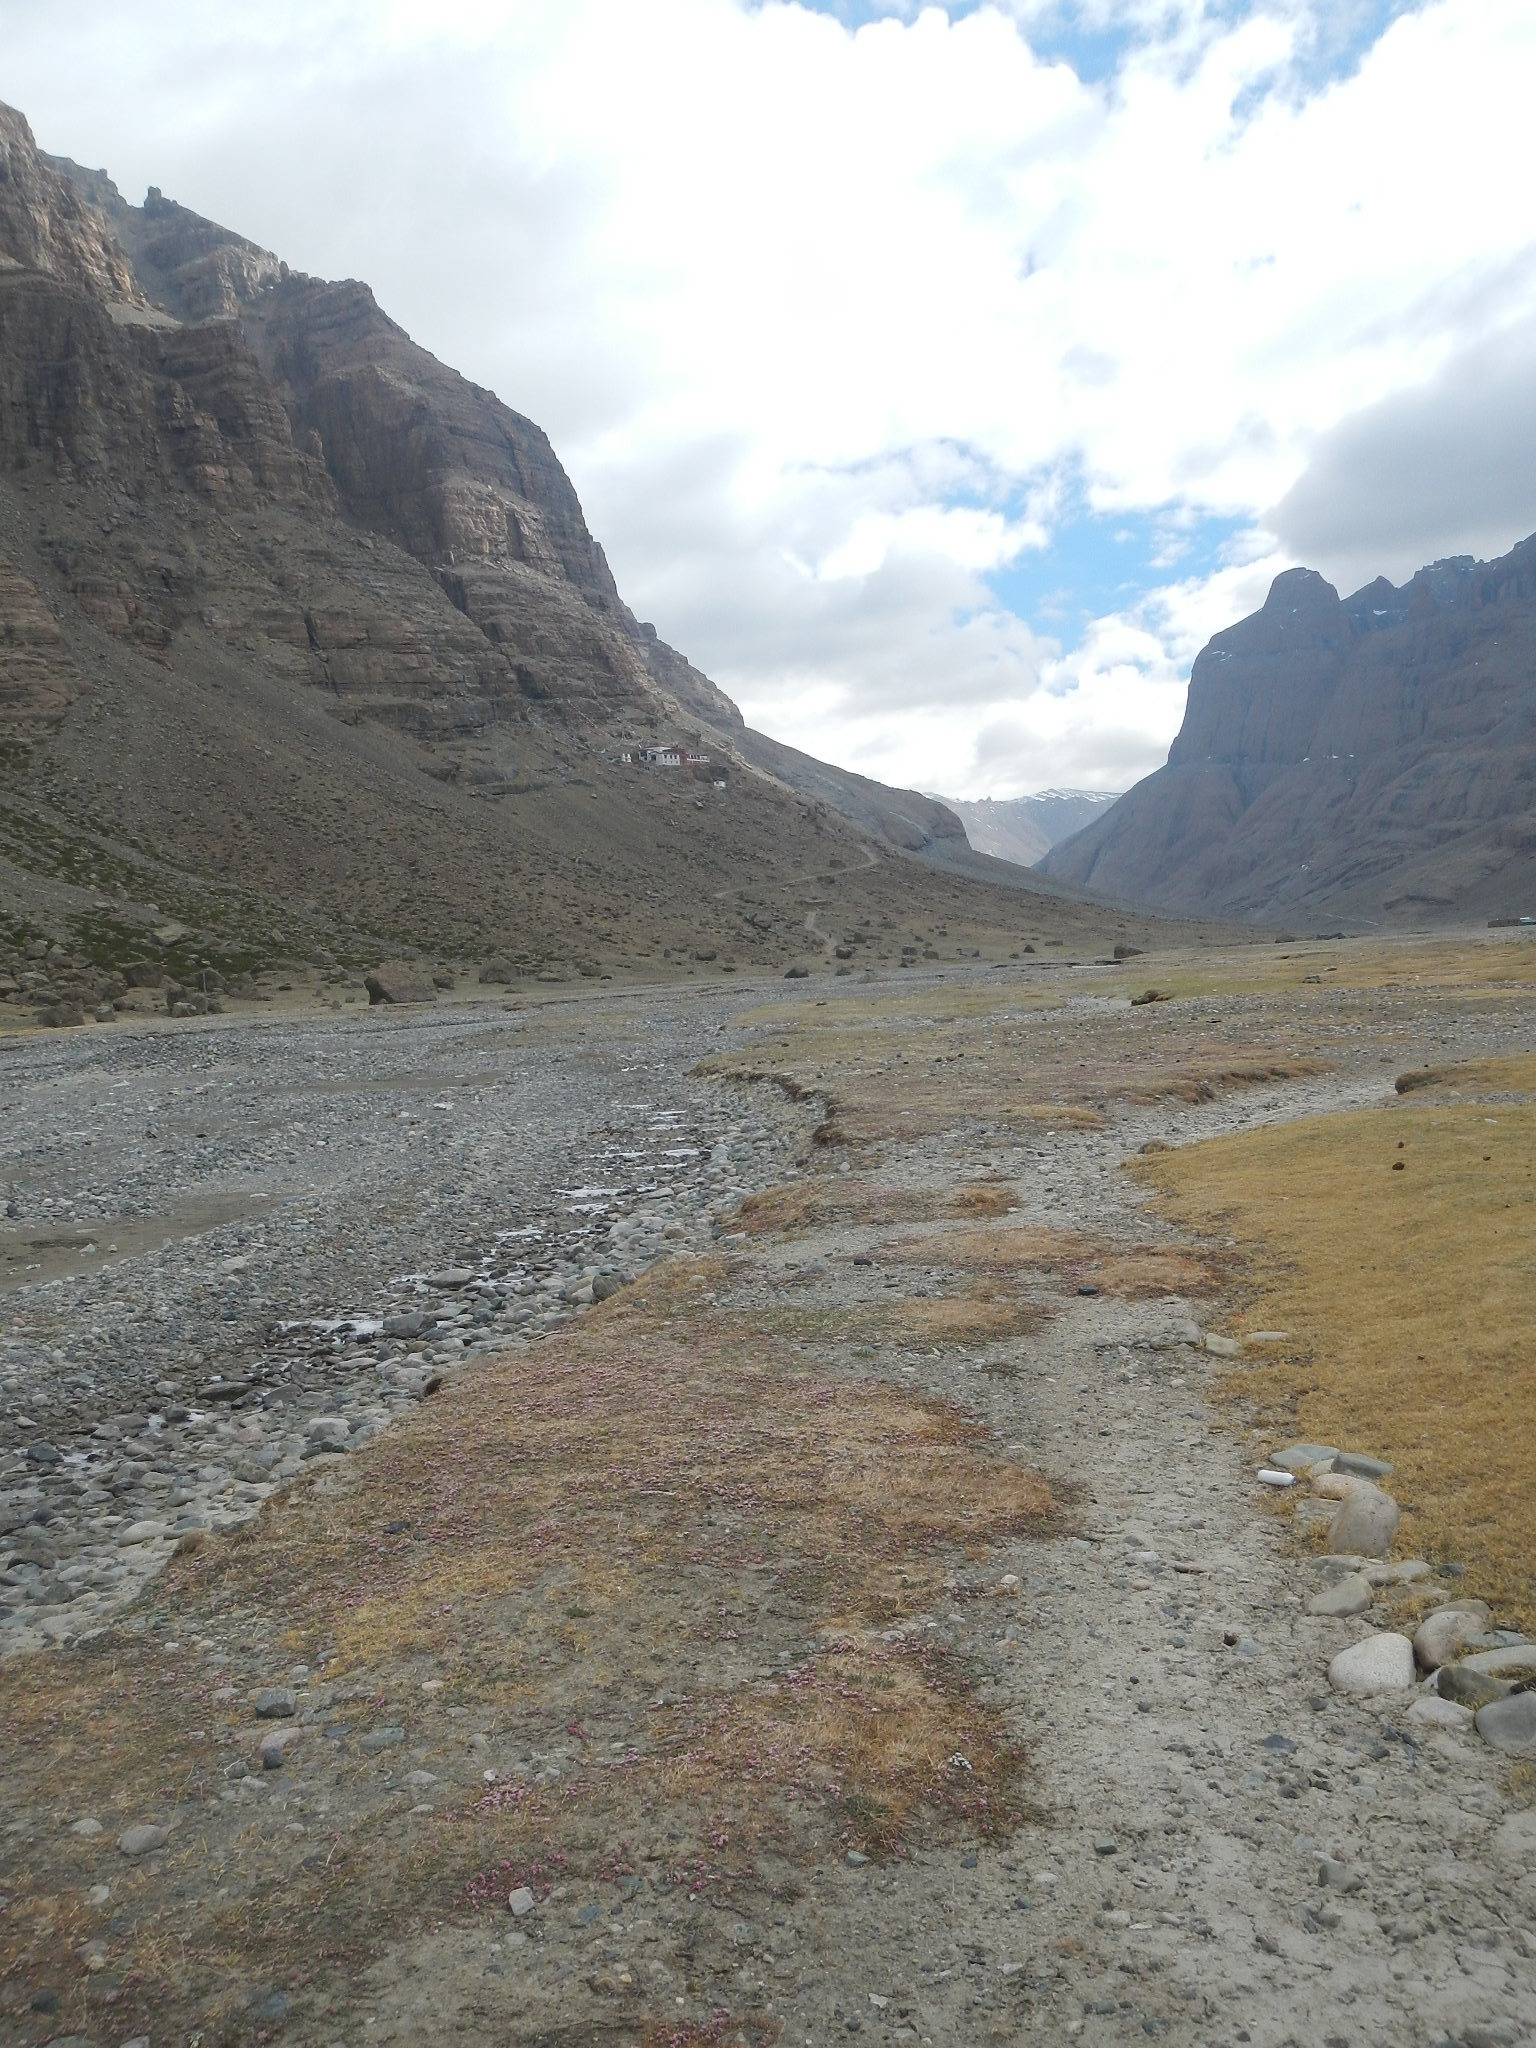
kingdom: Plantae
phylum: Tracheophyta
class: Magnoliopsida
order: Caryophyllales
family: Tamaricaceae
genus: Myricaria
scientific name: Myricaria prostrata
